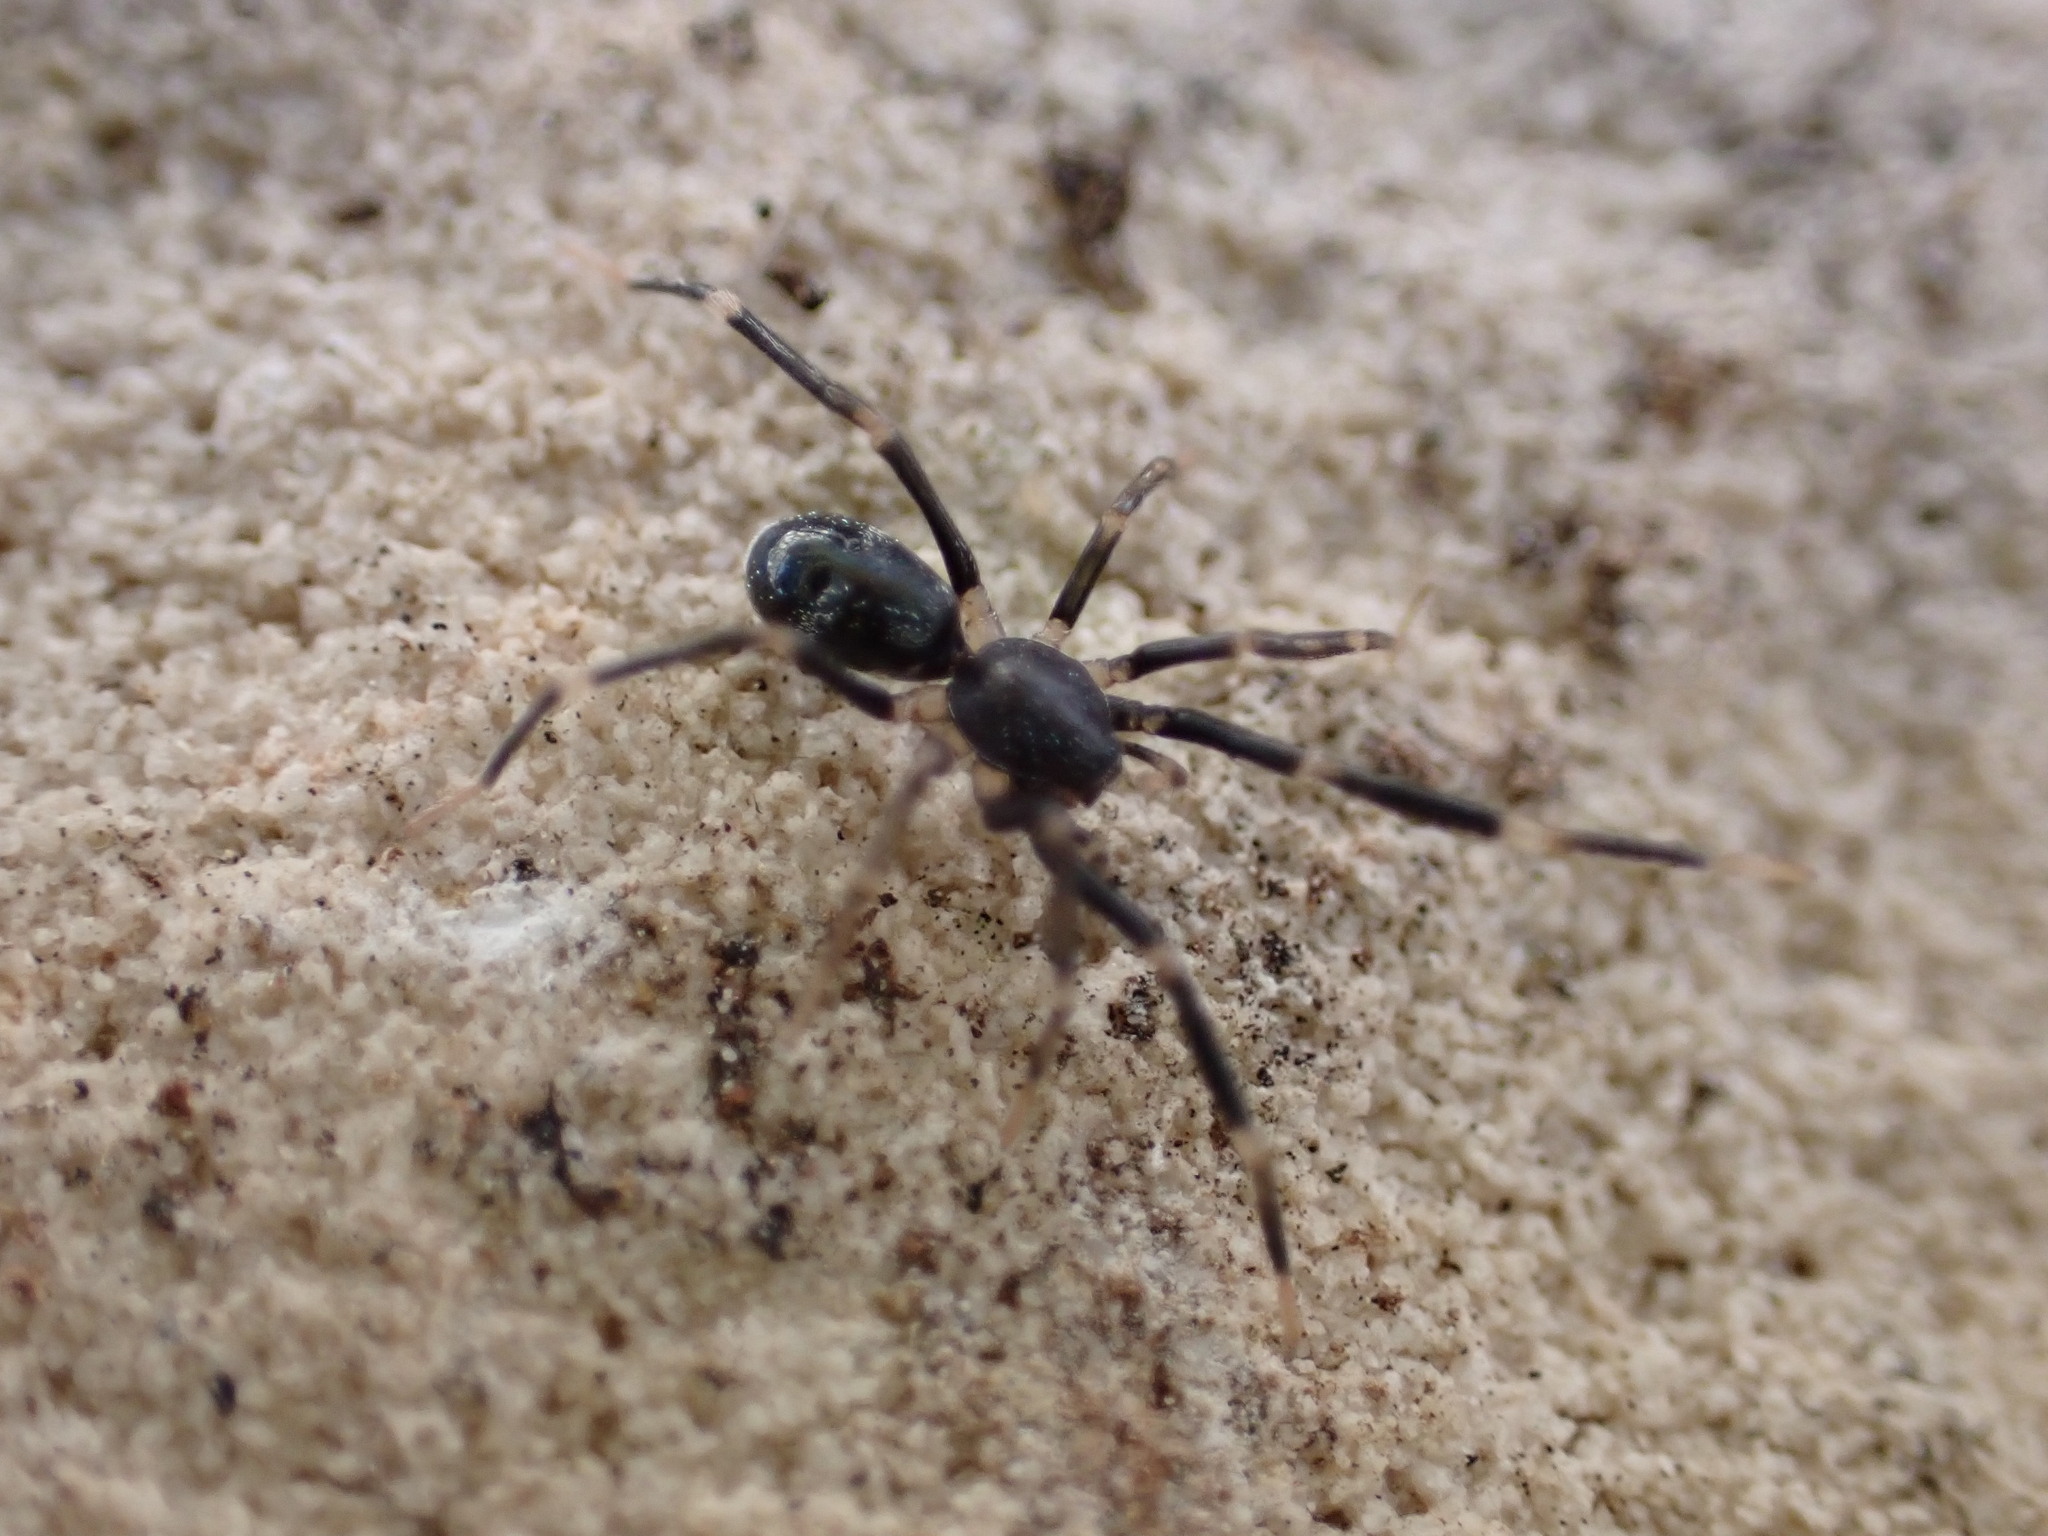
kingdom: Animalia
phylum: Arthropoda
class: Arachnida
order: Araneae
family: Phrurolithidae
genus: Liophrurillus
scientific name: Liophrurillus flavitarsis
